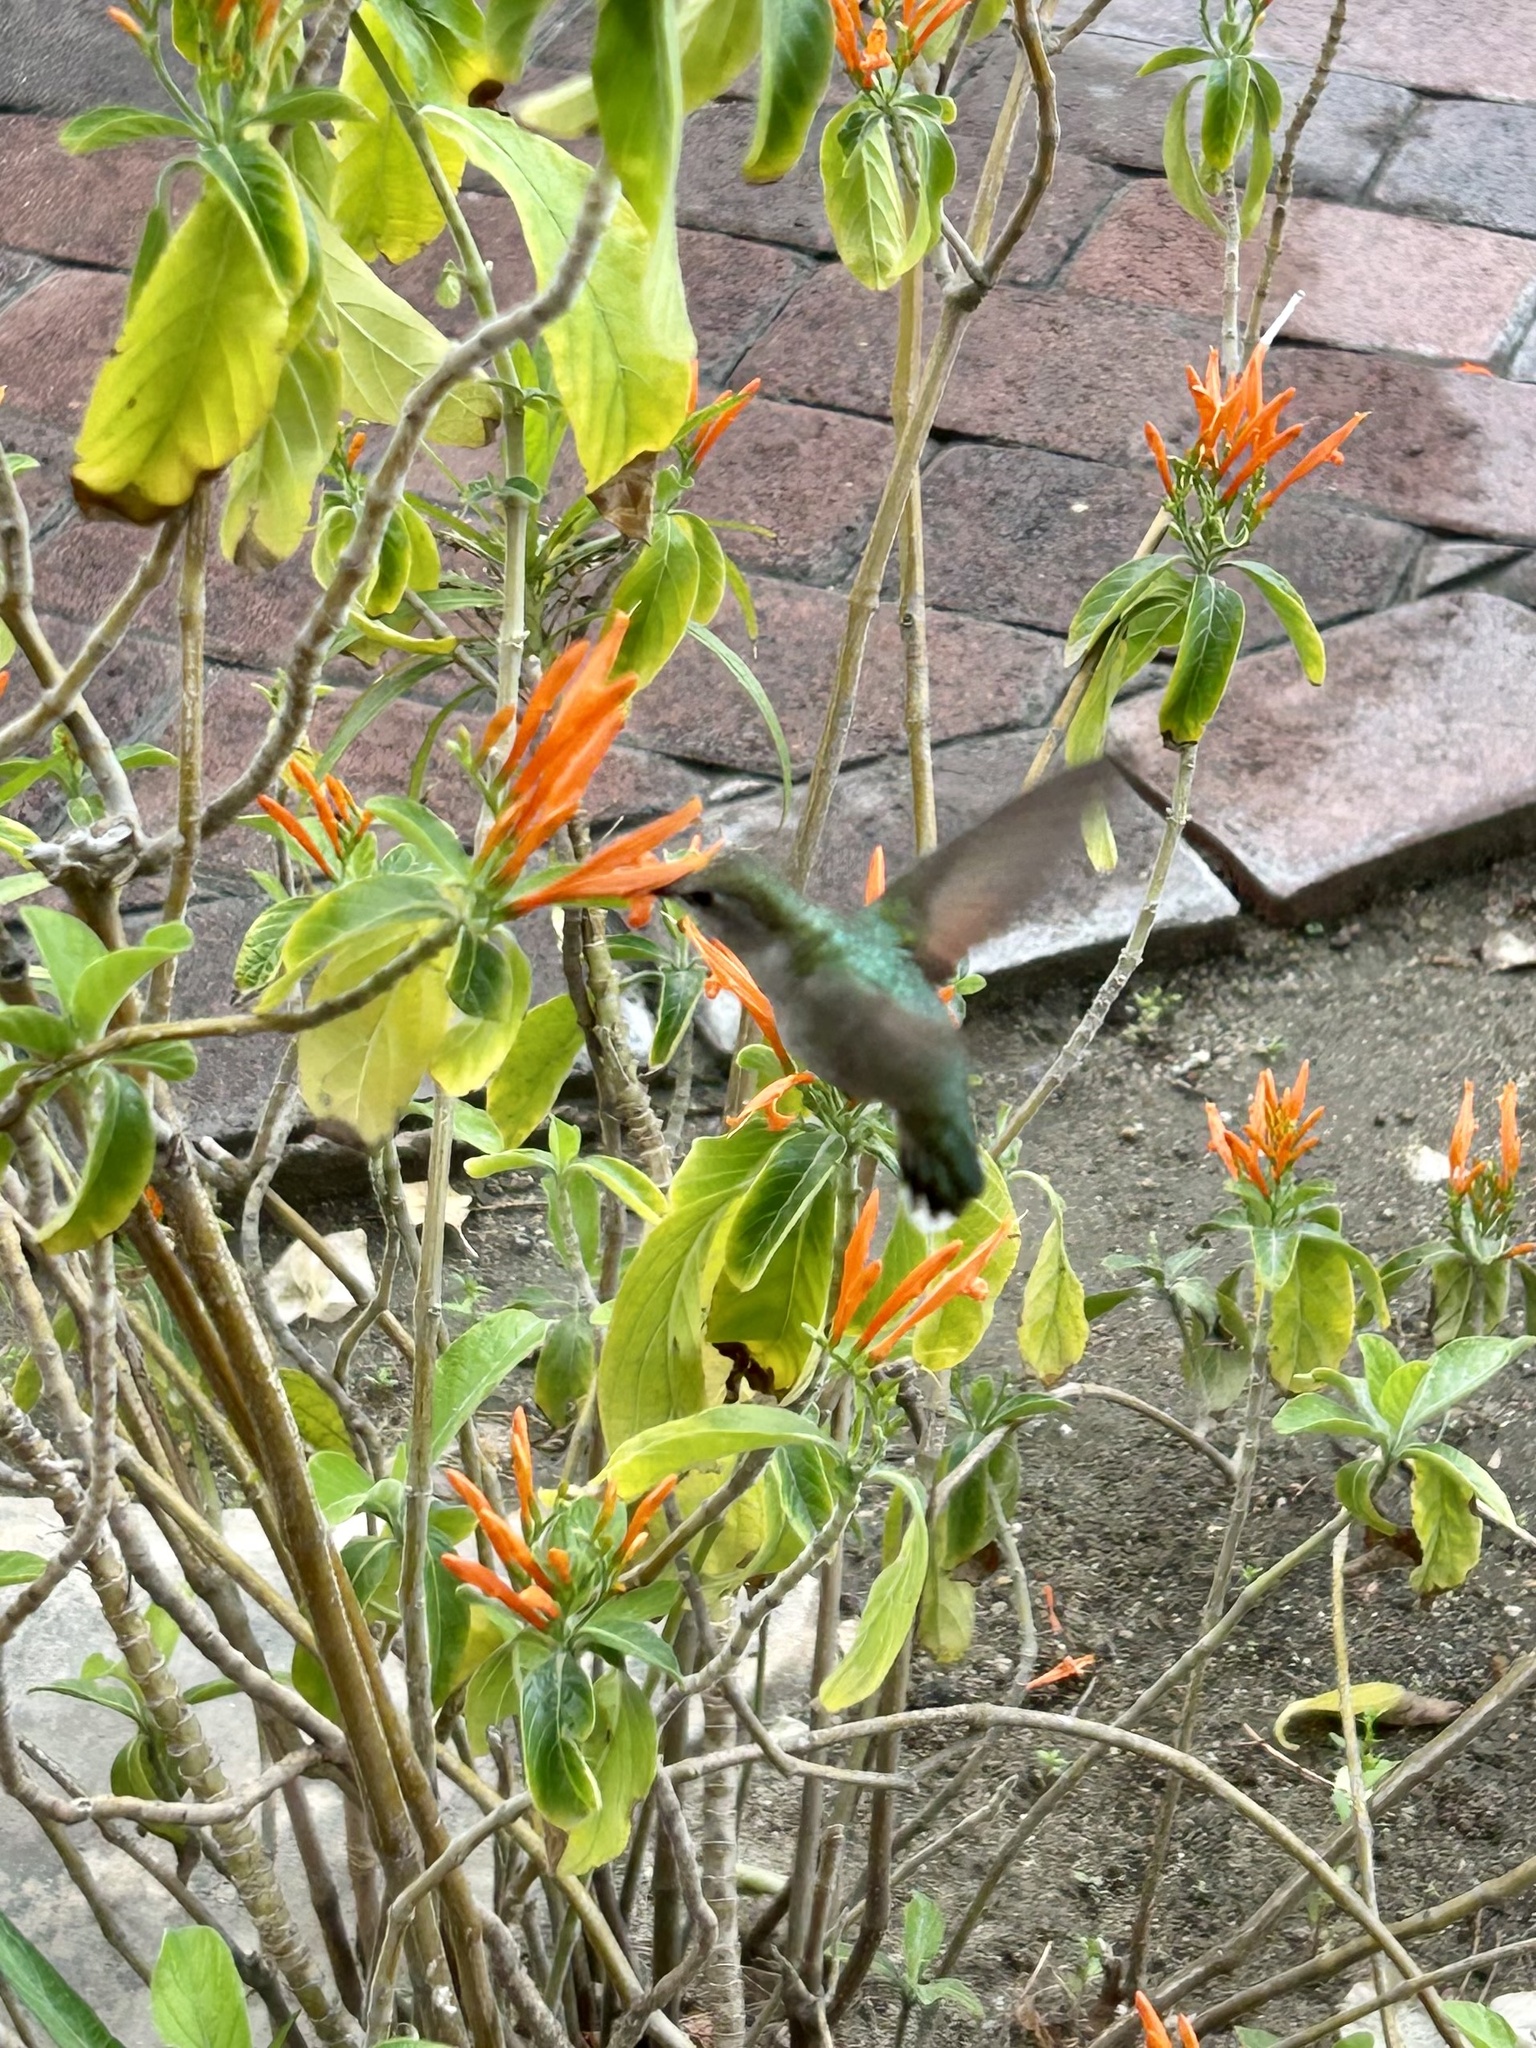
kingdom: Animalia
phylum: Chordata
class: Aves
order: Apodiformes
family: Trochilidae
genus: Calypte
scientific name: Calypte costae
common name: Costa's hummingbird
